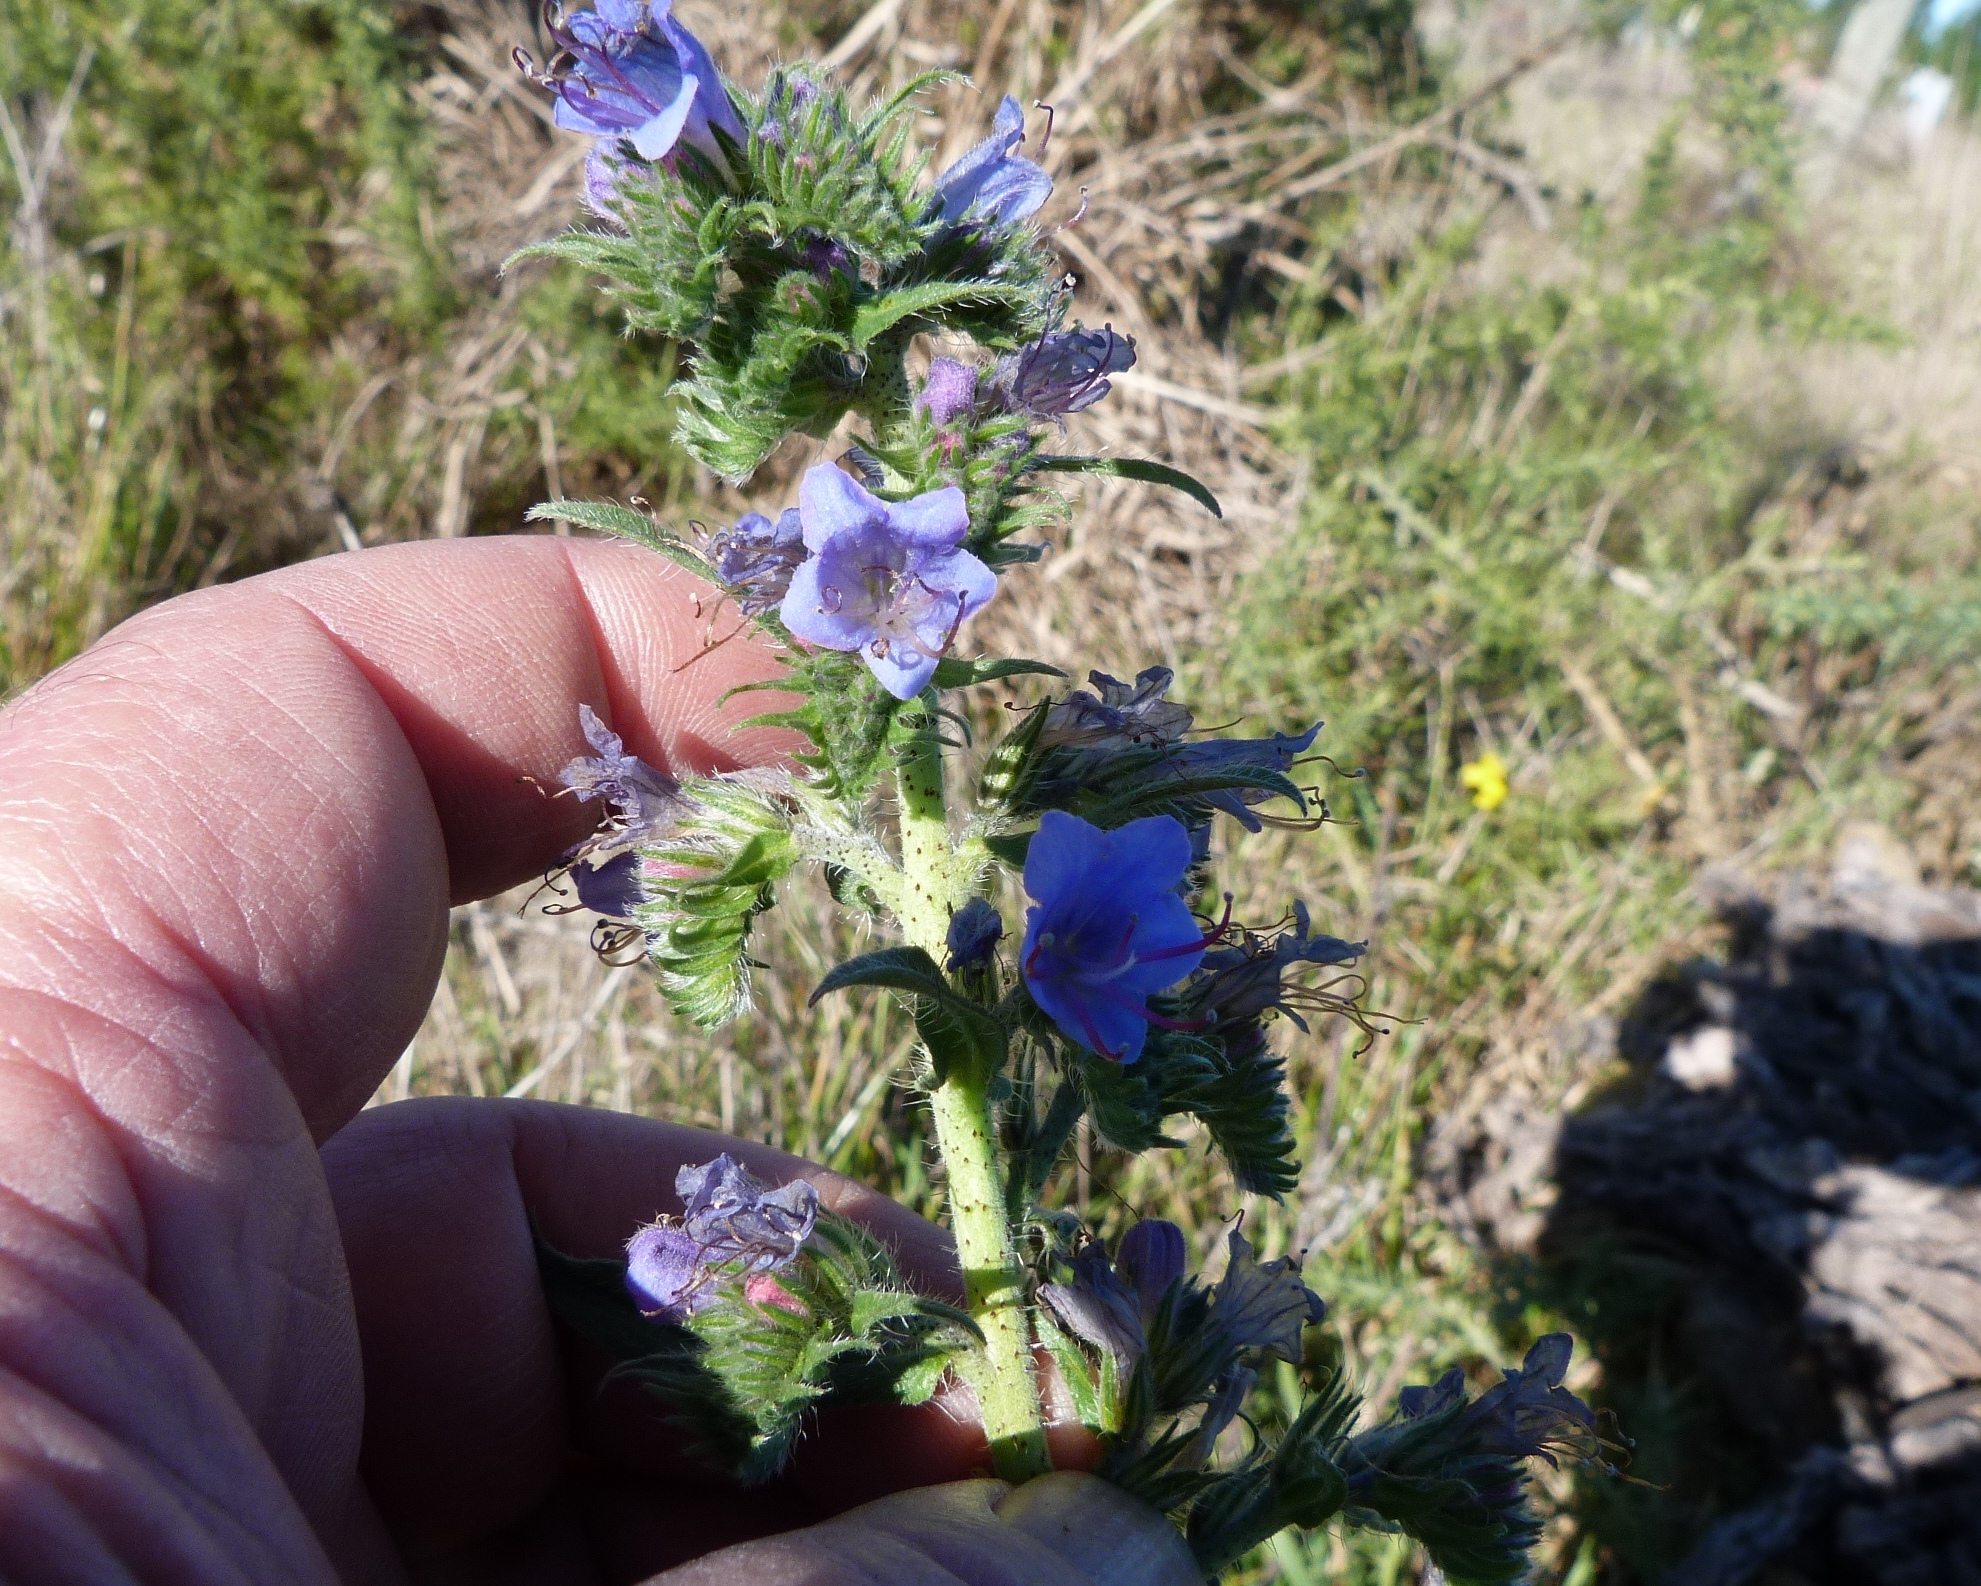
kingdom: Plantae
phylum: Tracheophyta
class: Magnoliopsida
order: Boraginales
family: Boraginaceae
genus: Echium
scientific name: Echium vulgare
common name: Common viper's bugloss
